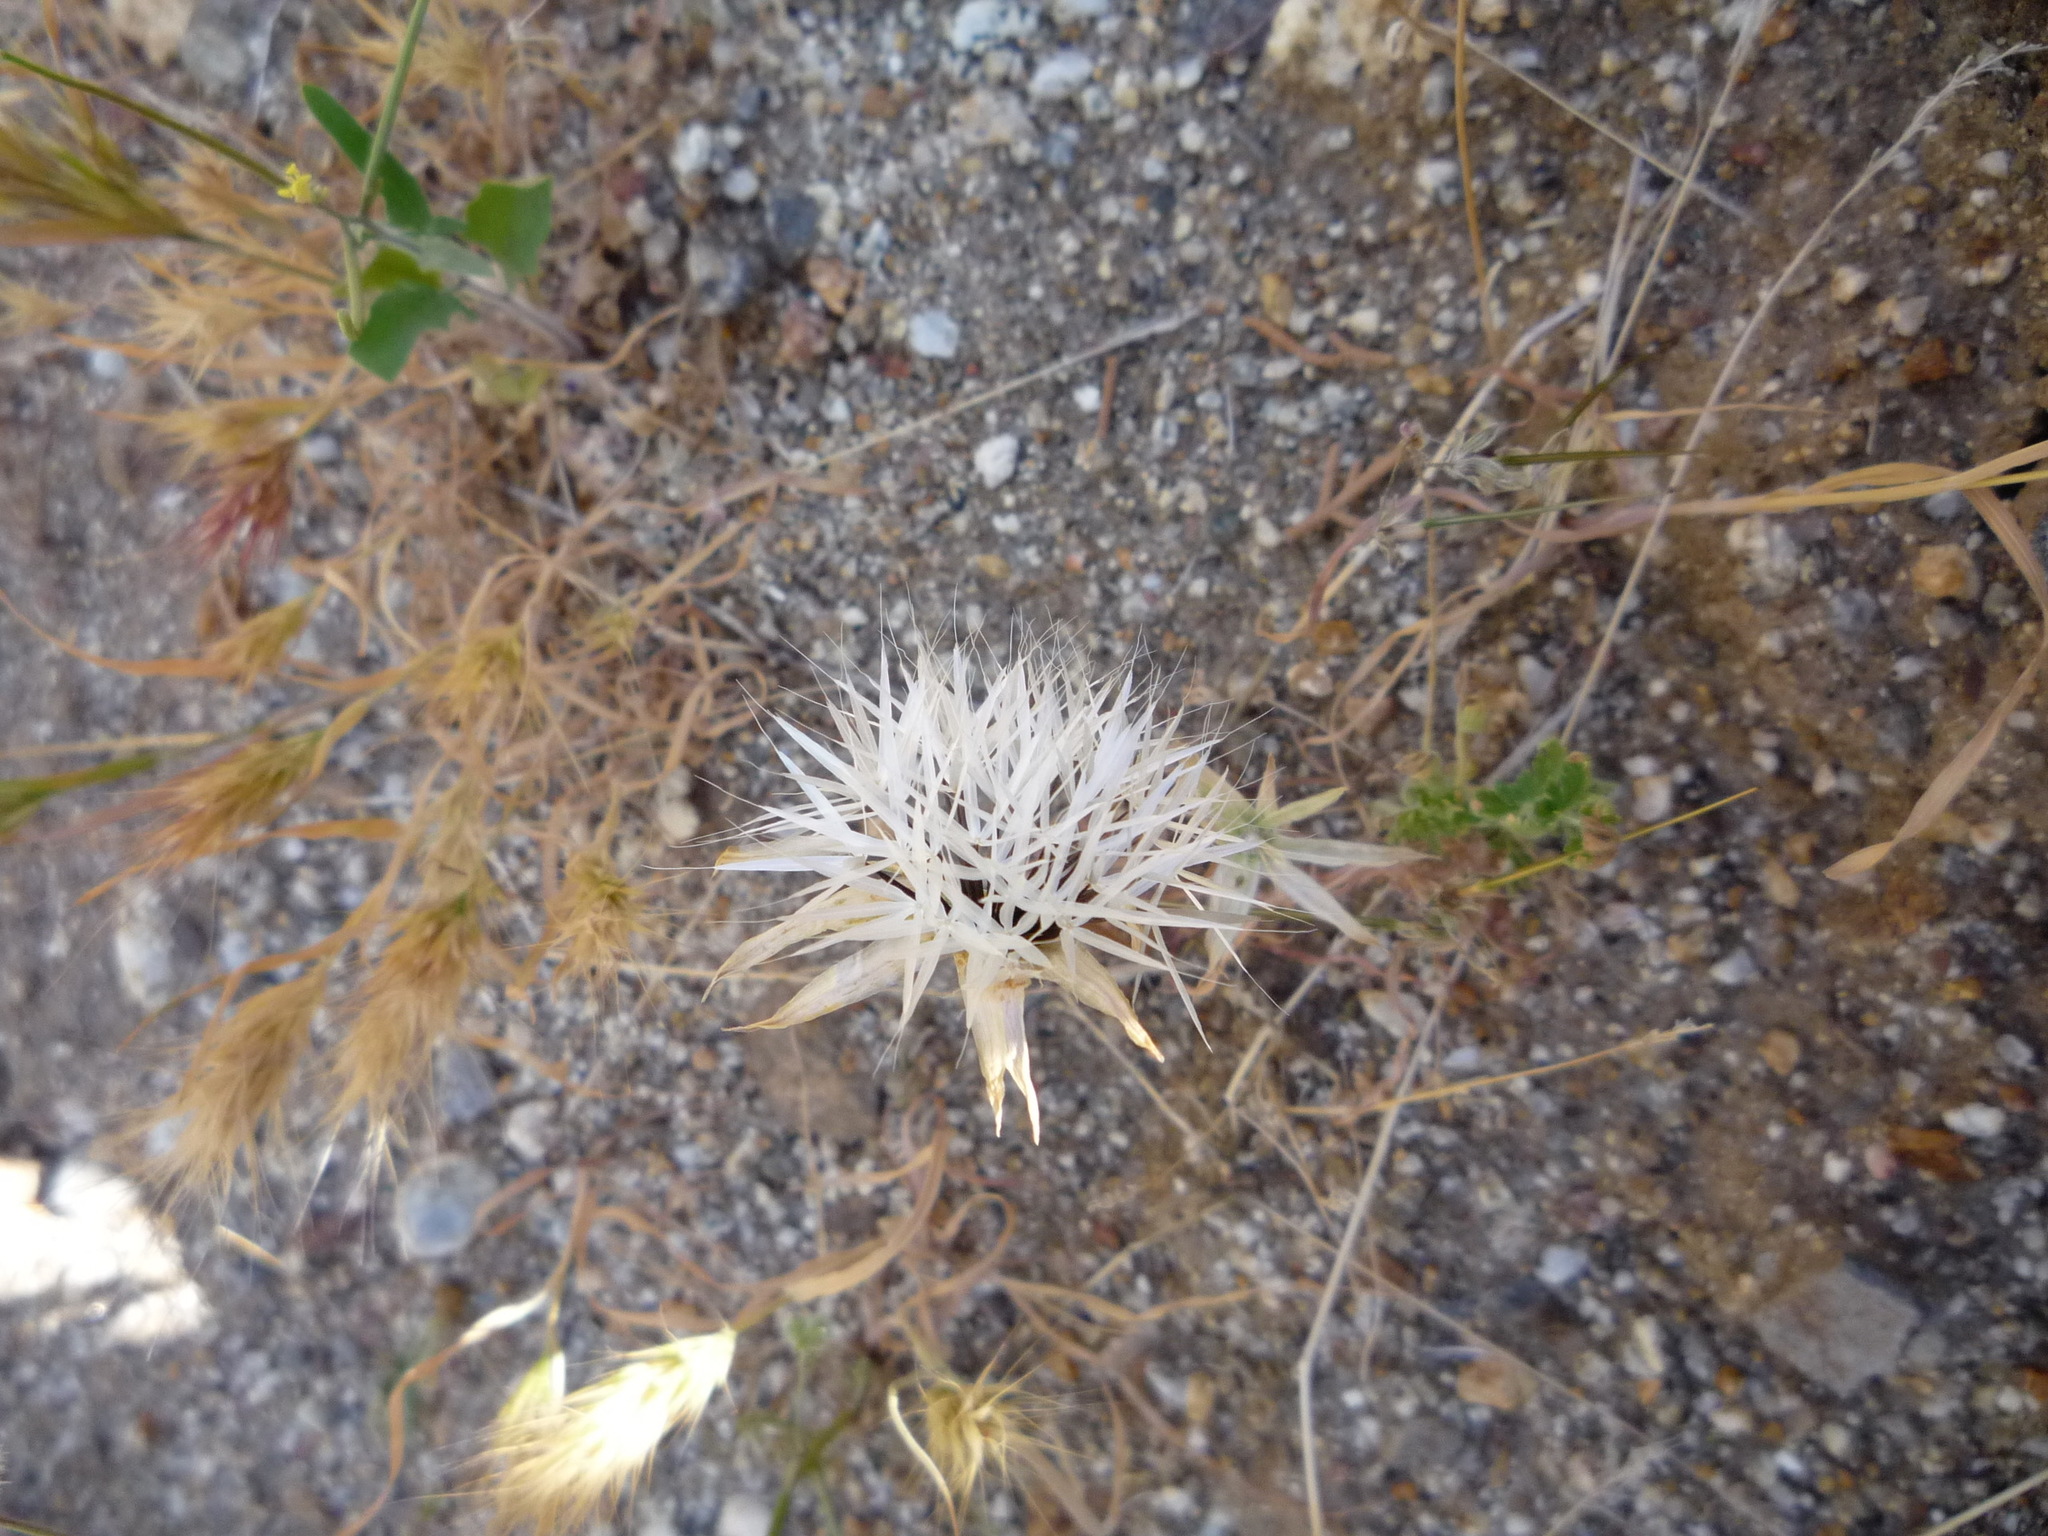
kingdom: Plantae
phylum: Tracheophyta
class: Magnoliopsida
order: Asterales
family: Asteraceae
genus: Microseris
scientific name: Microseris lindleyi
